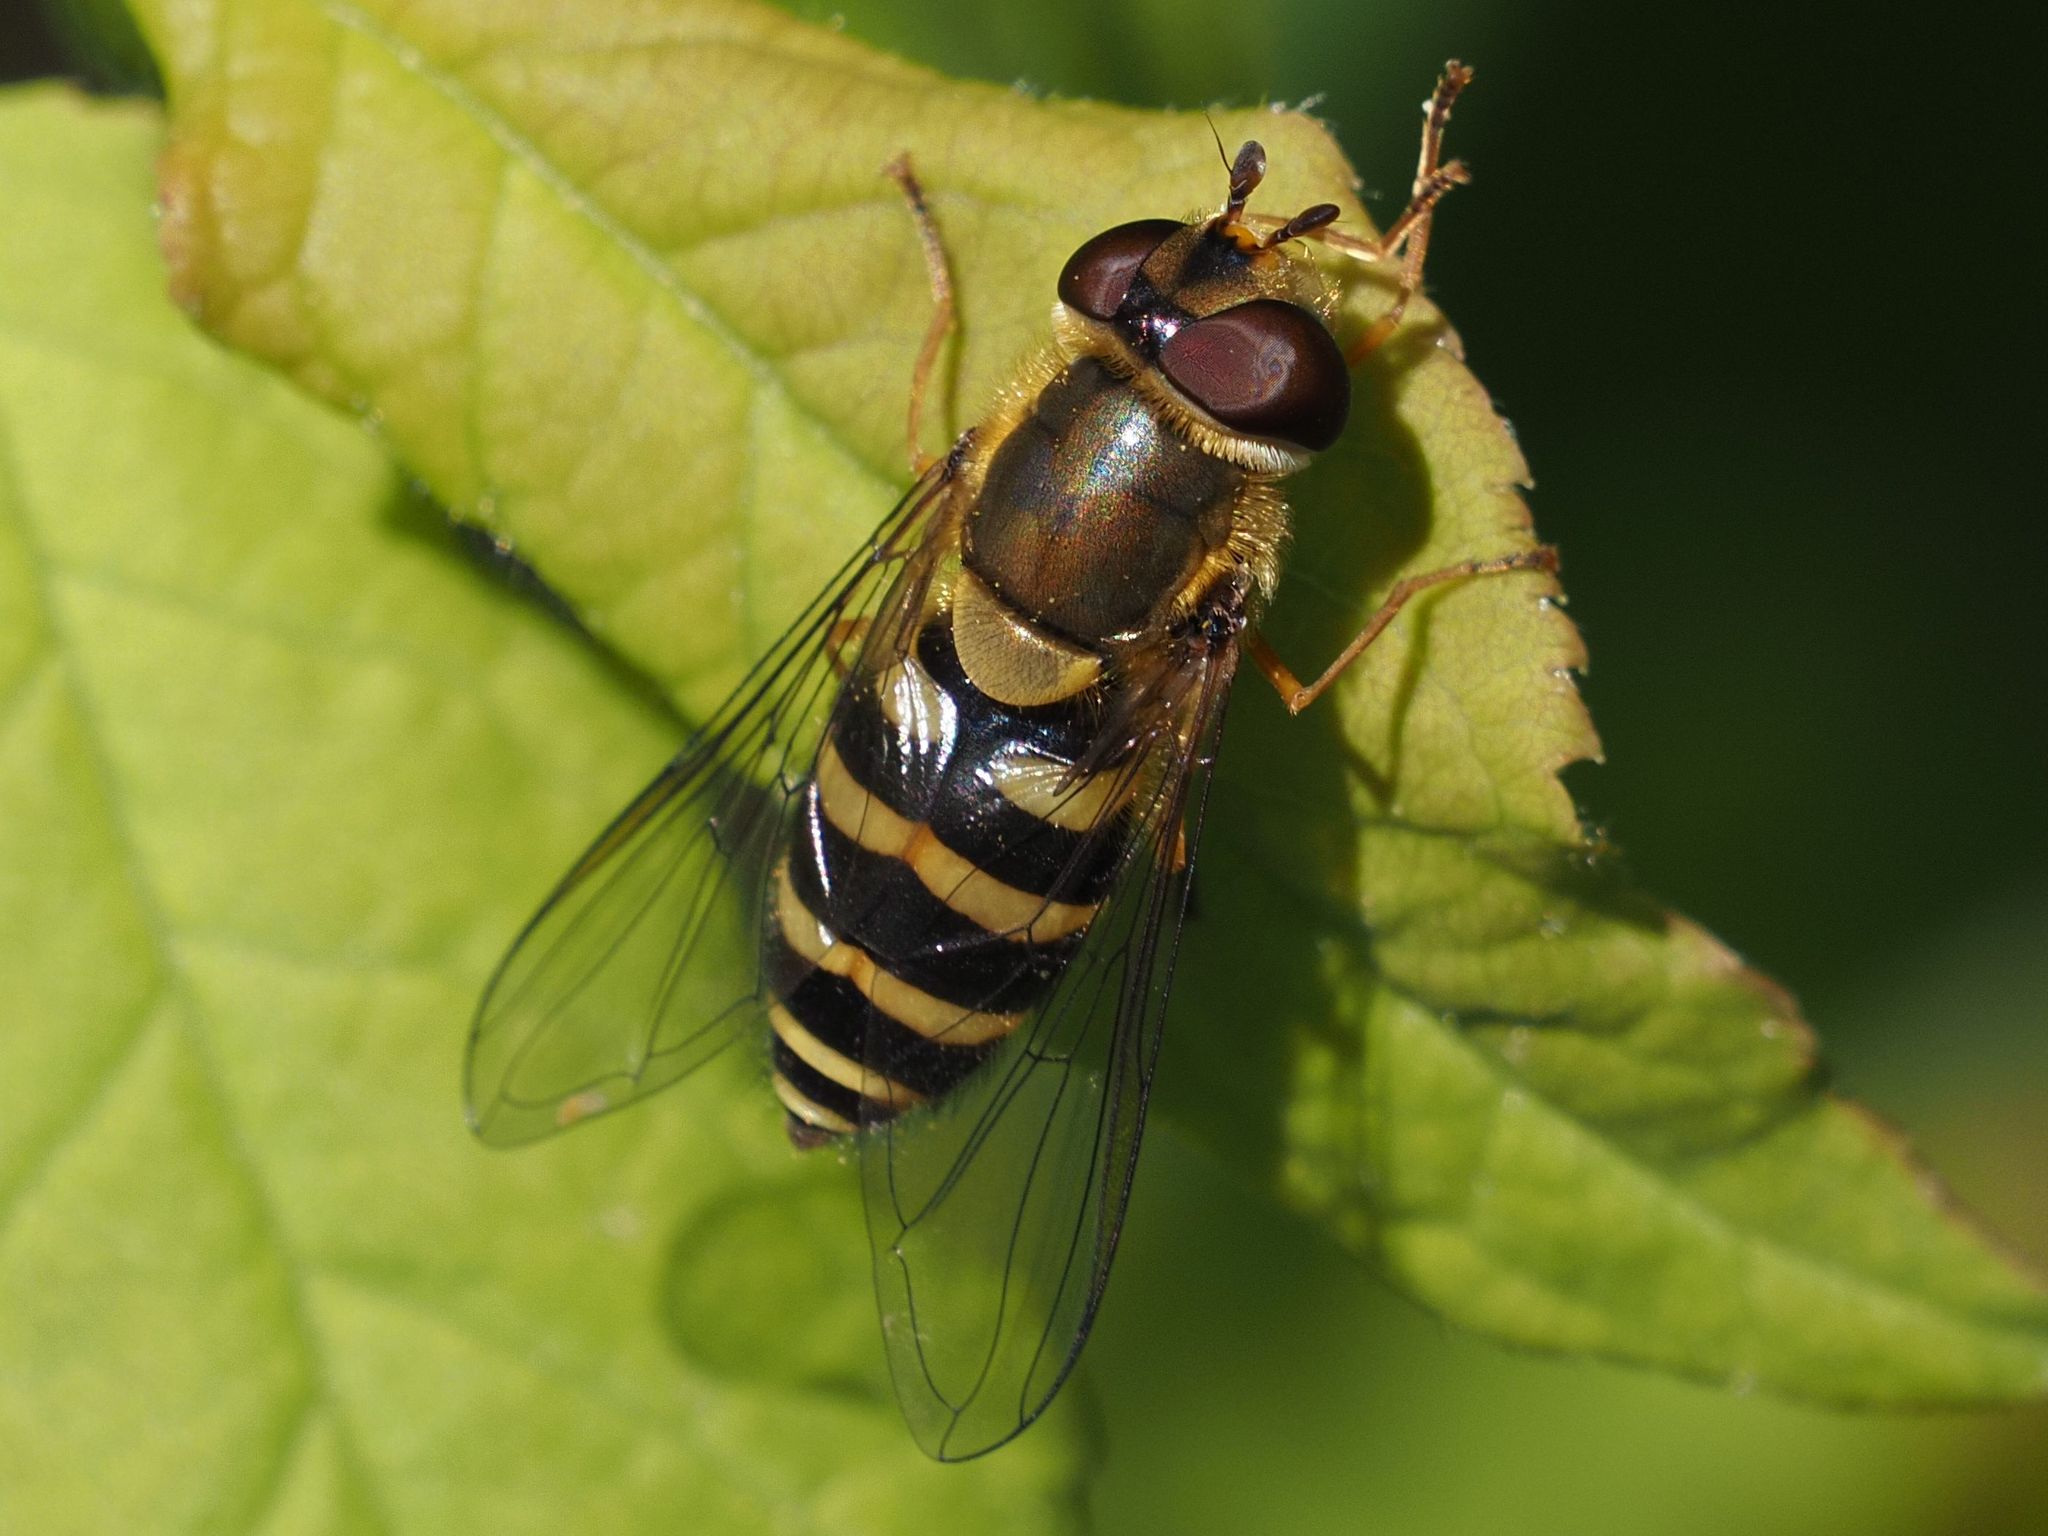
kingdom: Animalia
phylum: Arthropoda
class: Insecta
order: Diptera
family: Syrphidae
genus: Syrphus
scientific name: Syrphus
